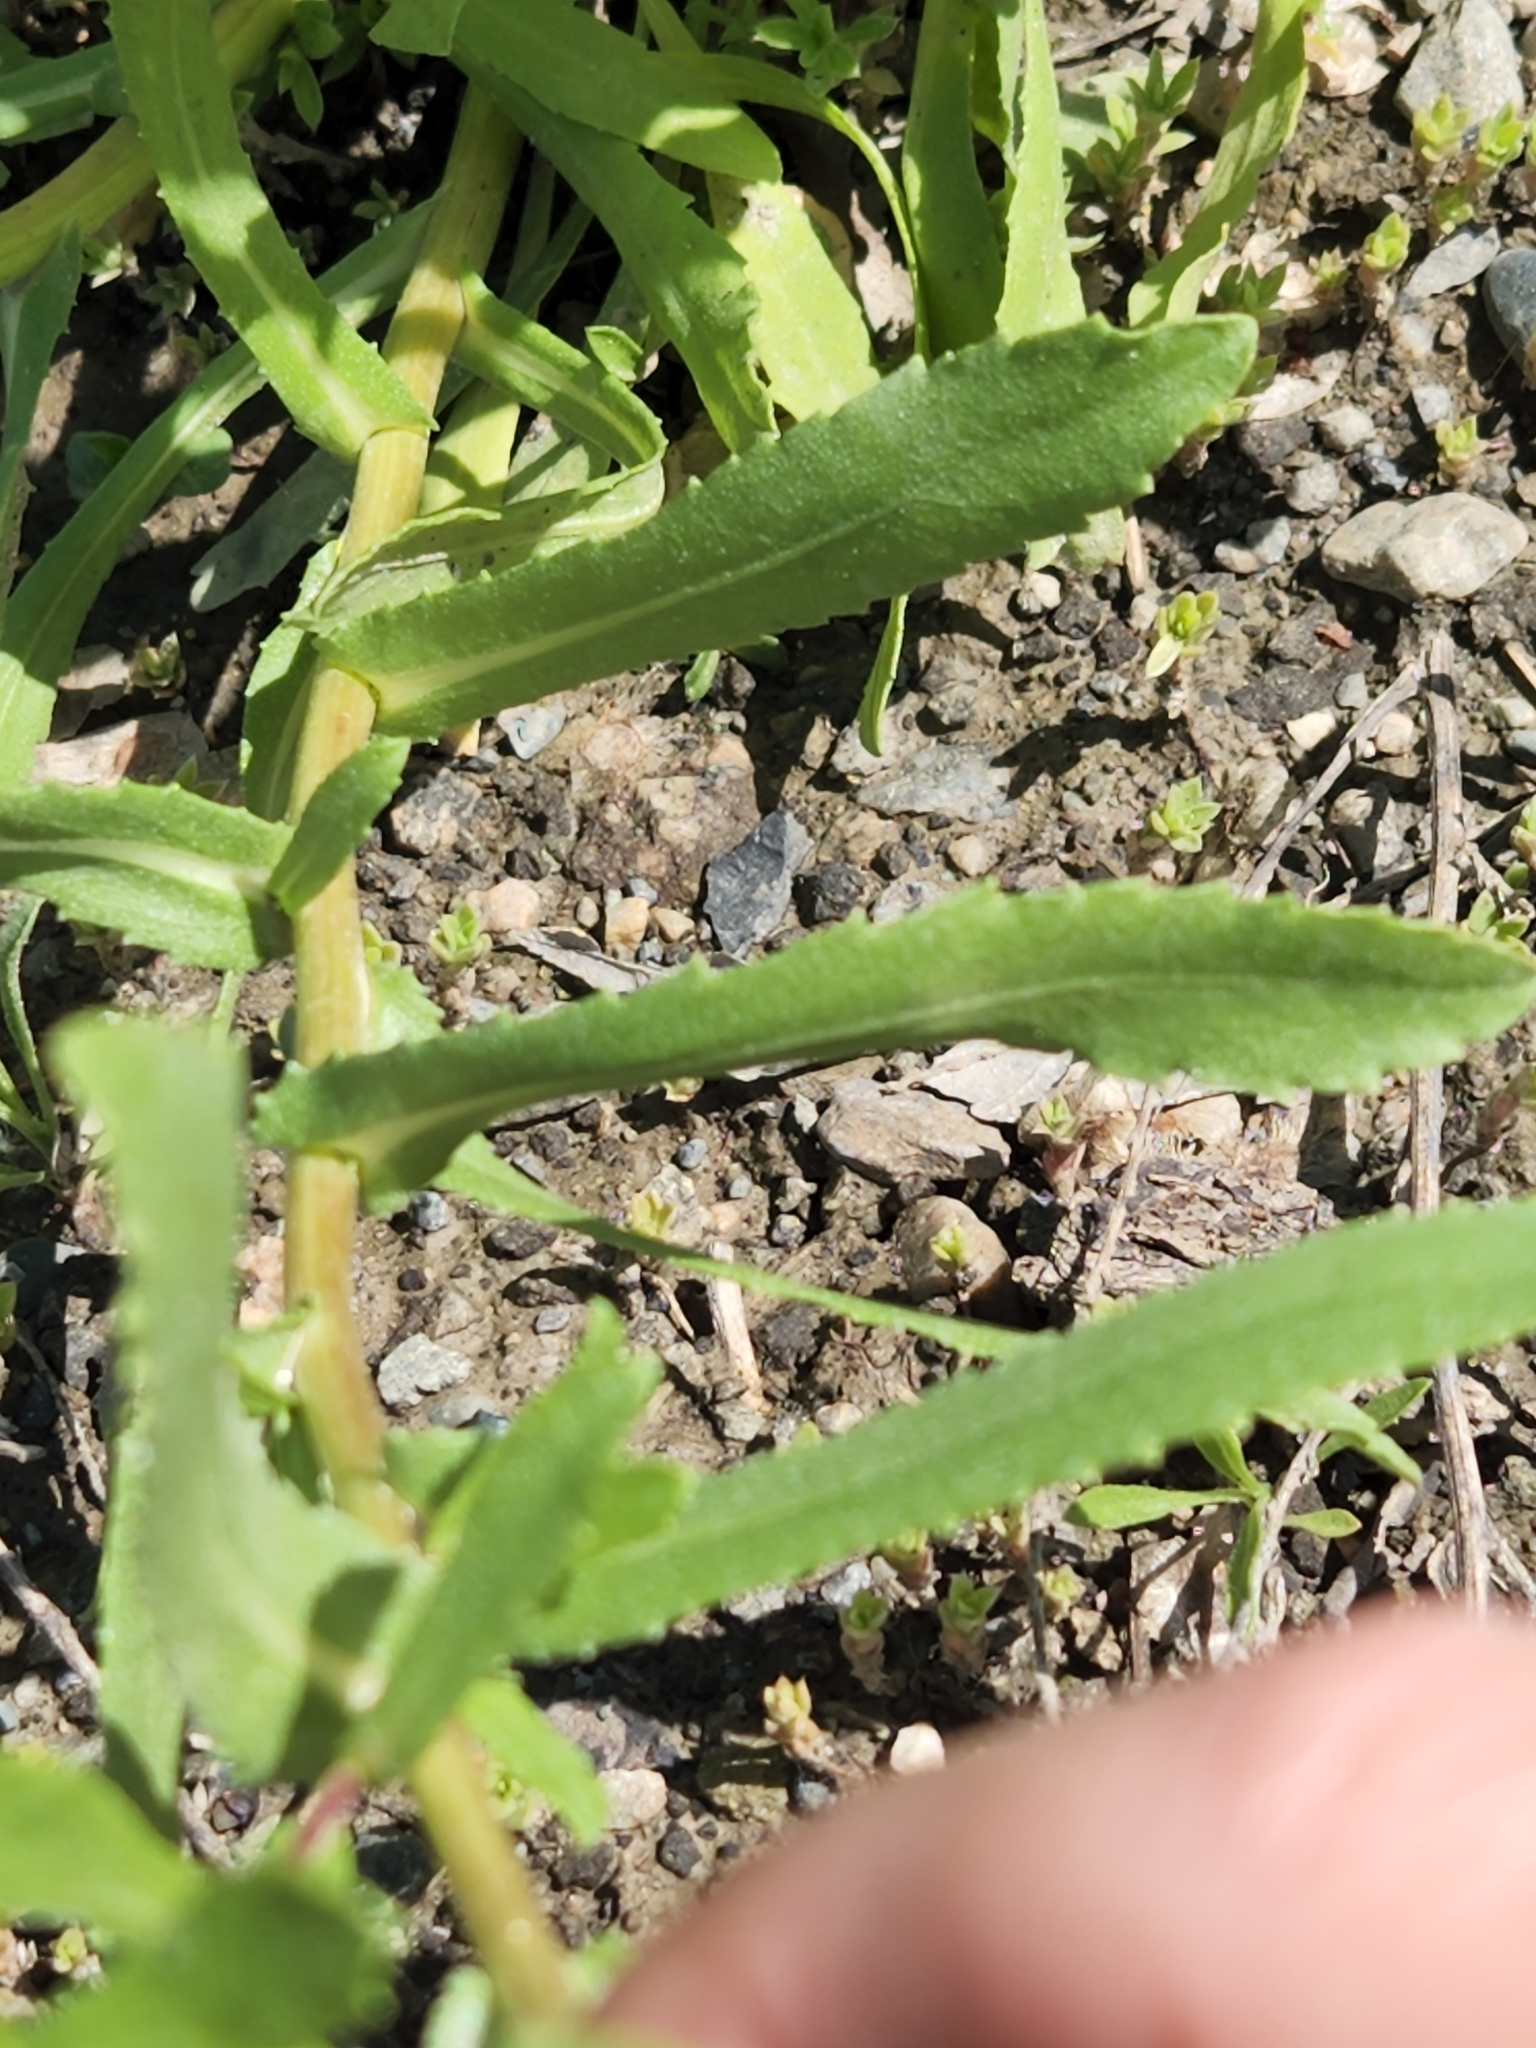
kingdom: Plantae
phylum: Tracheophyta
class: Magnoliopsida
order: Asterales
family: Asteraceae
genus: Grindelia
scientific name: Grindelia squarrosa
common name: Curly-cup gumweed
